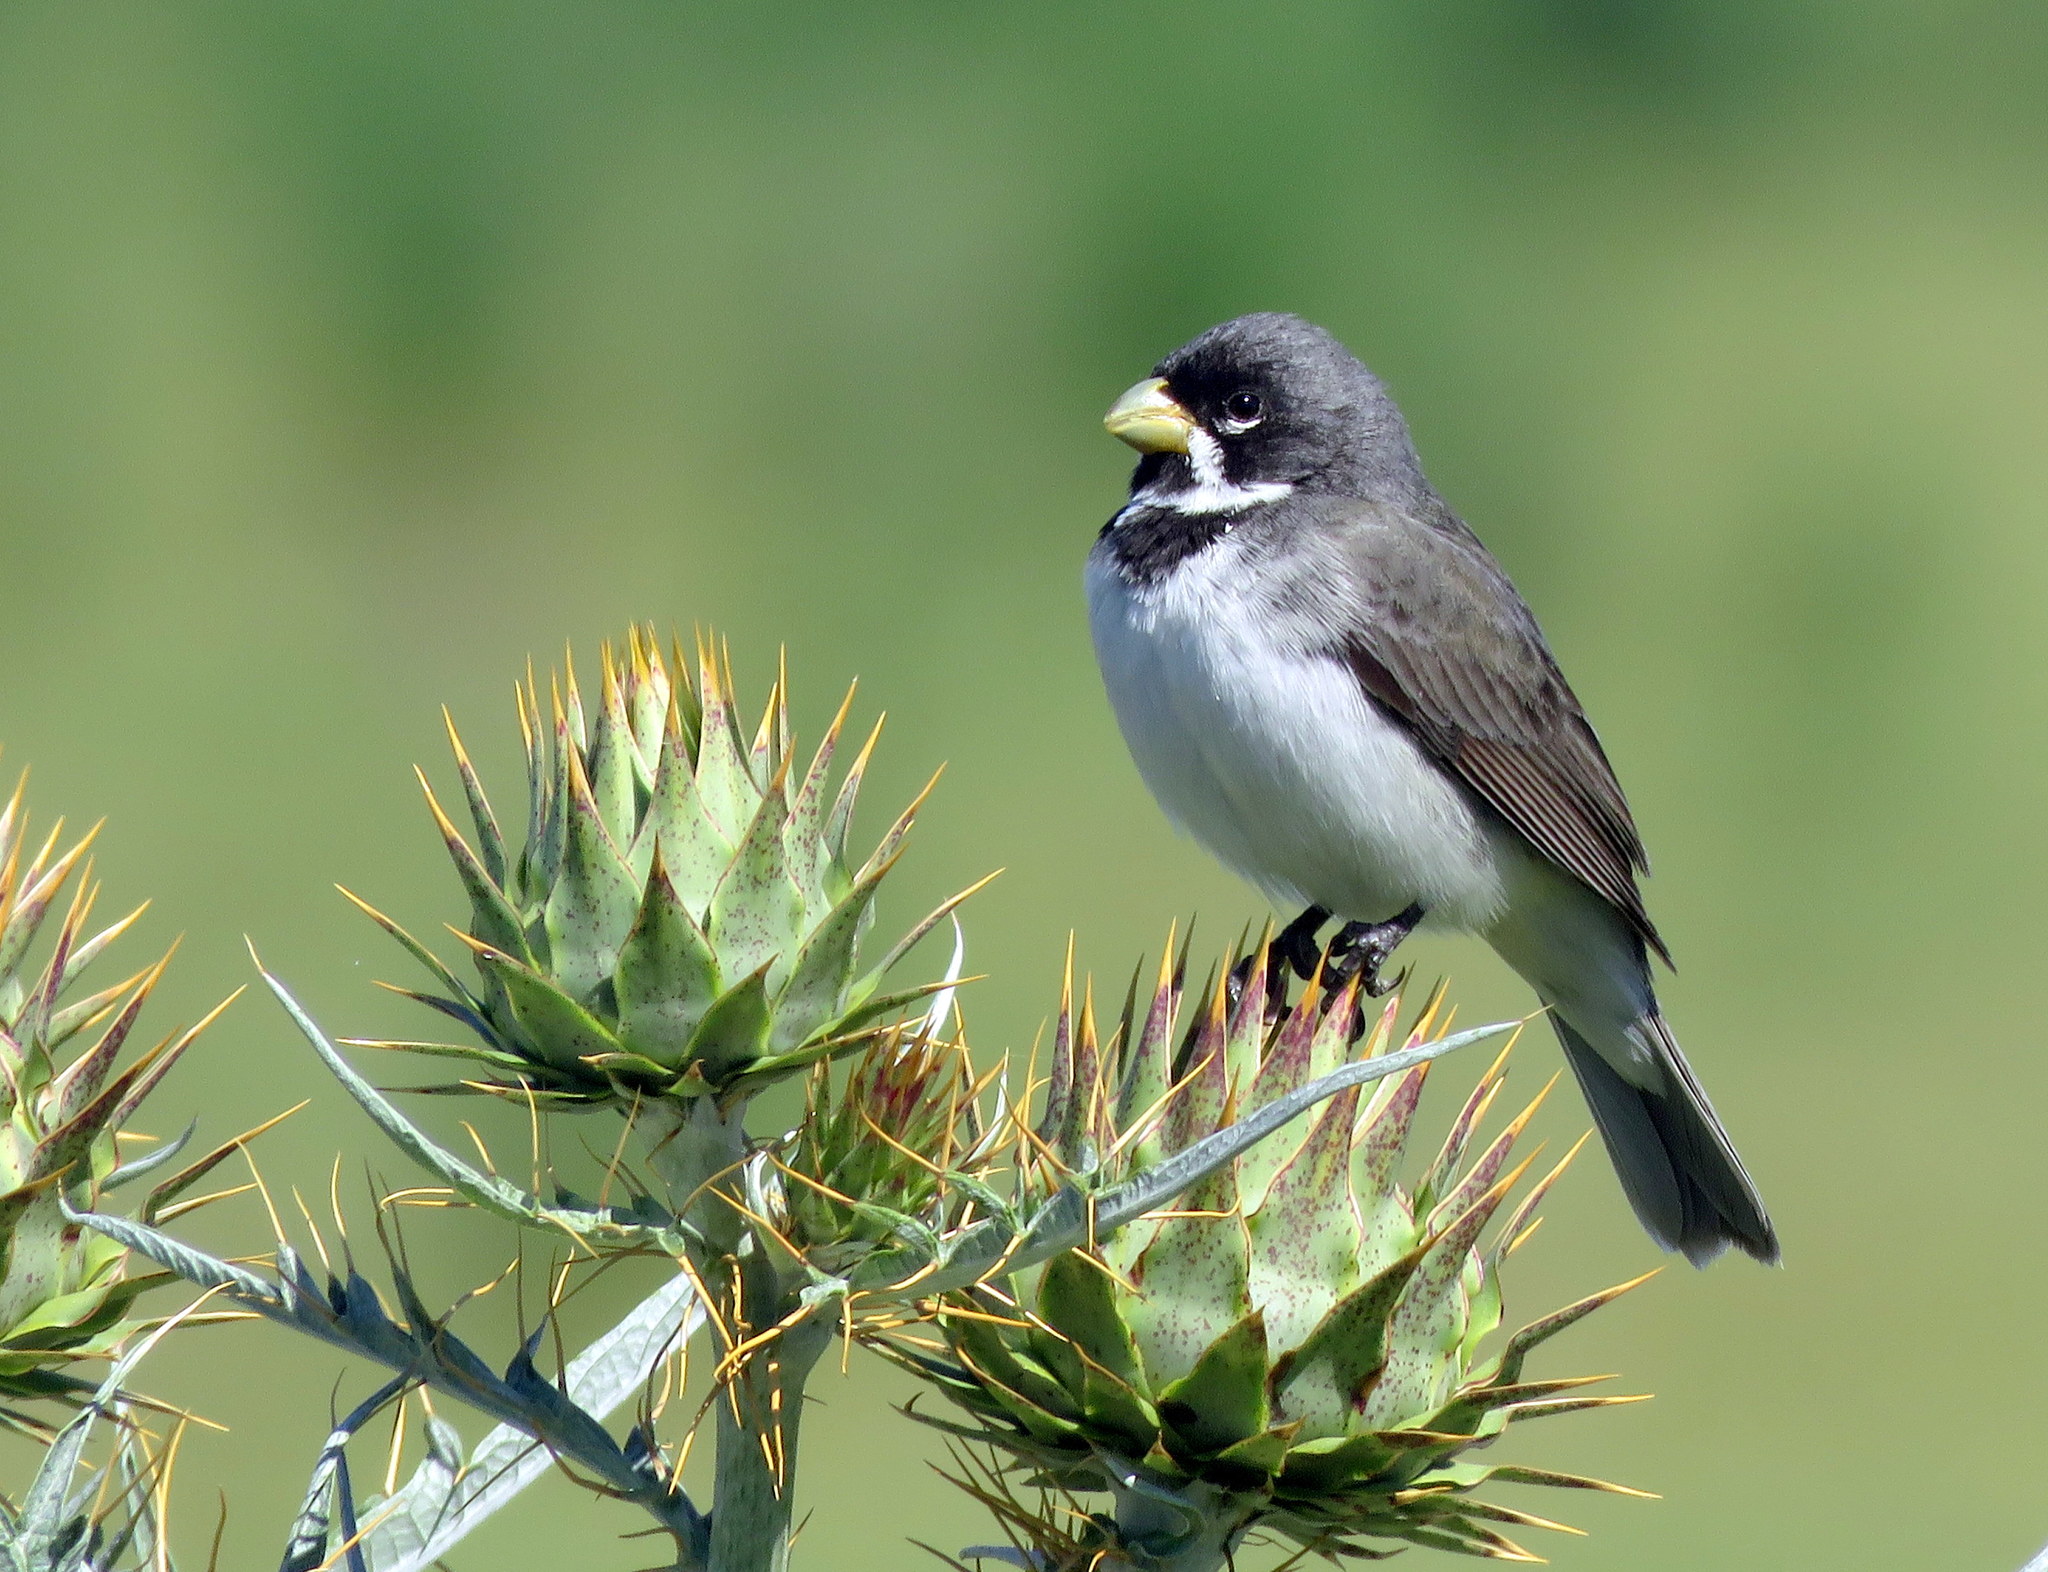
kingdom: Animalia
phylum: Chordata
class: Aves
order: Passeriformes
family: Thraupidae
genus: Sporophila
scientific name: Sporophila caerulescens
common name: Double-collared seedeater
